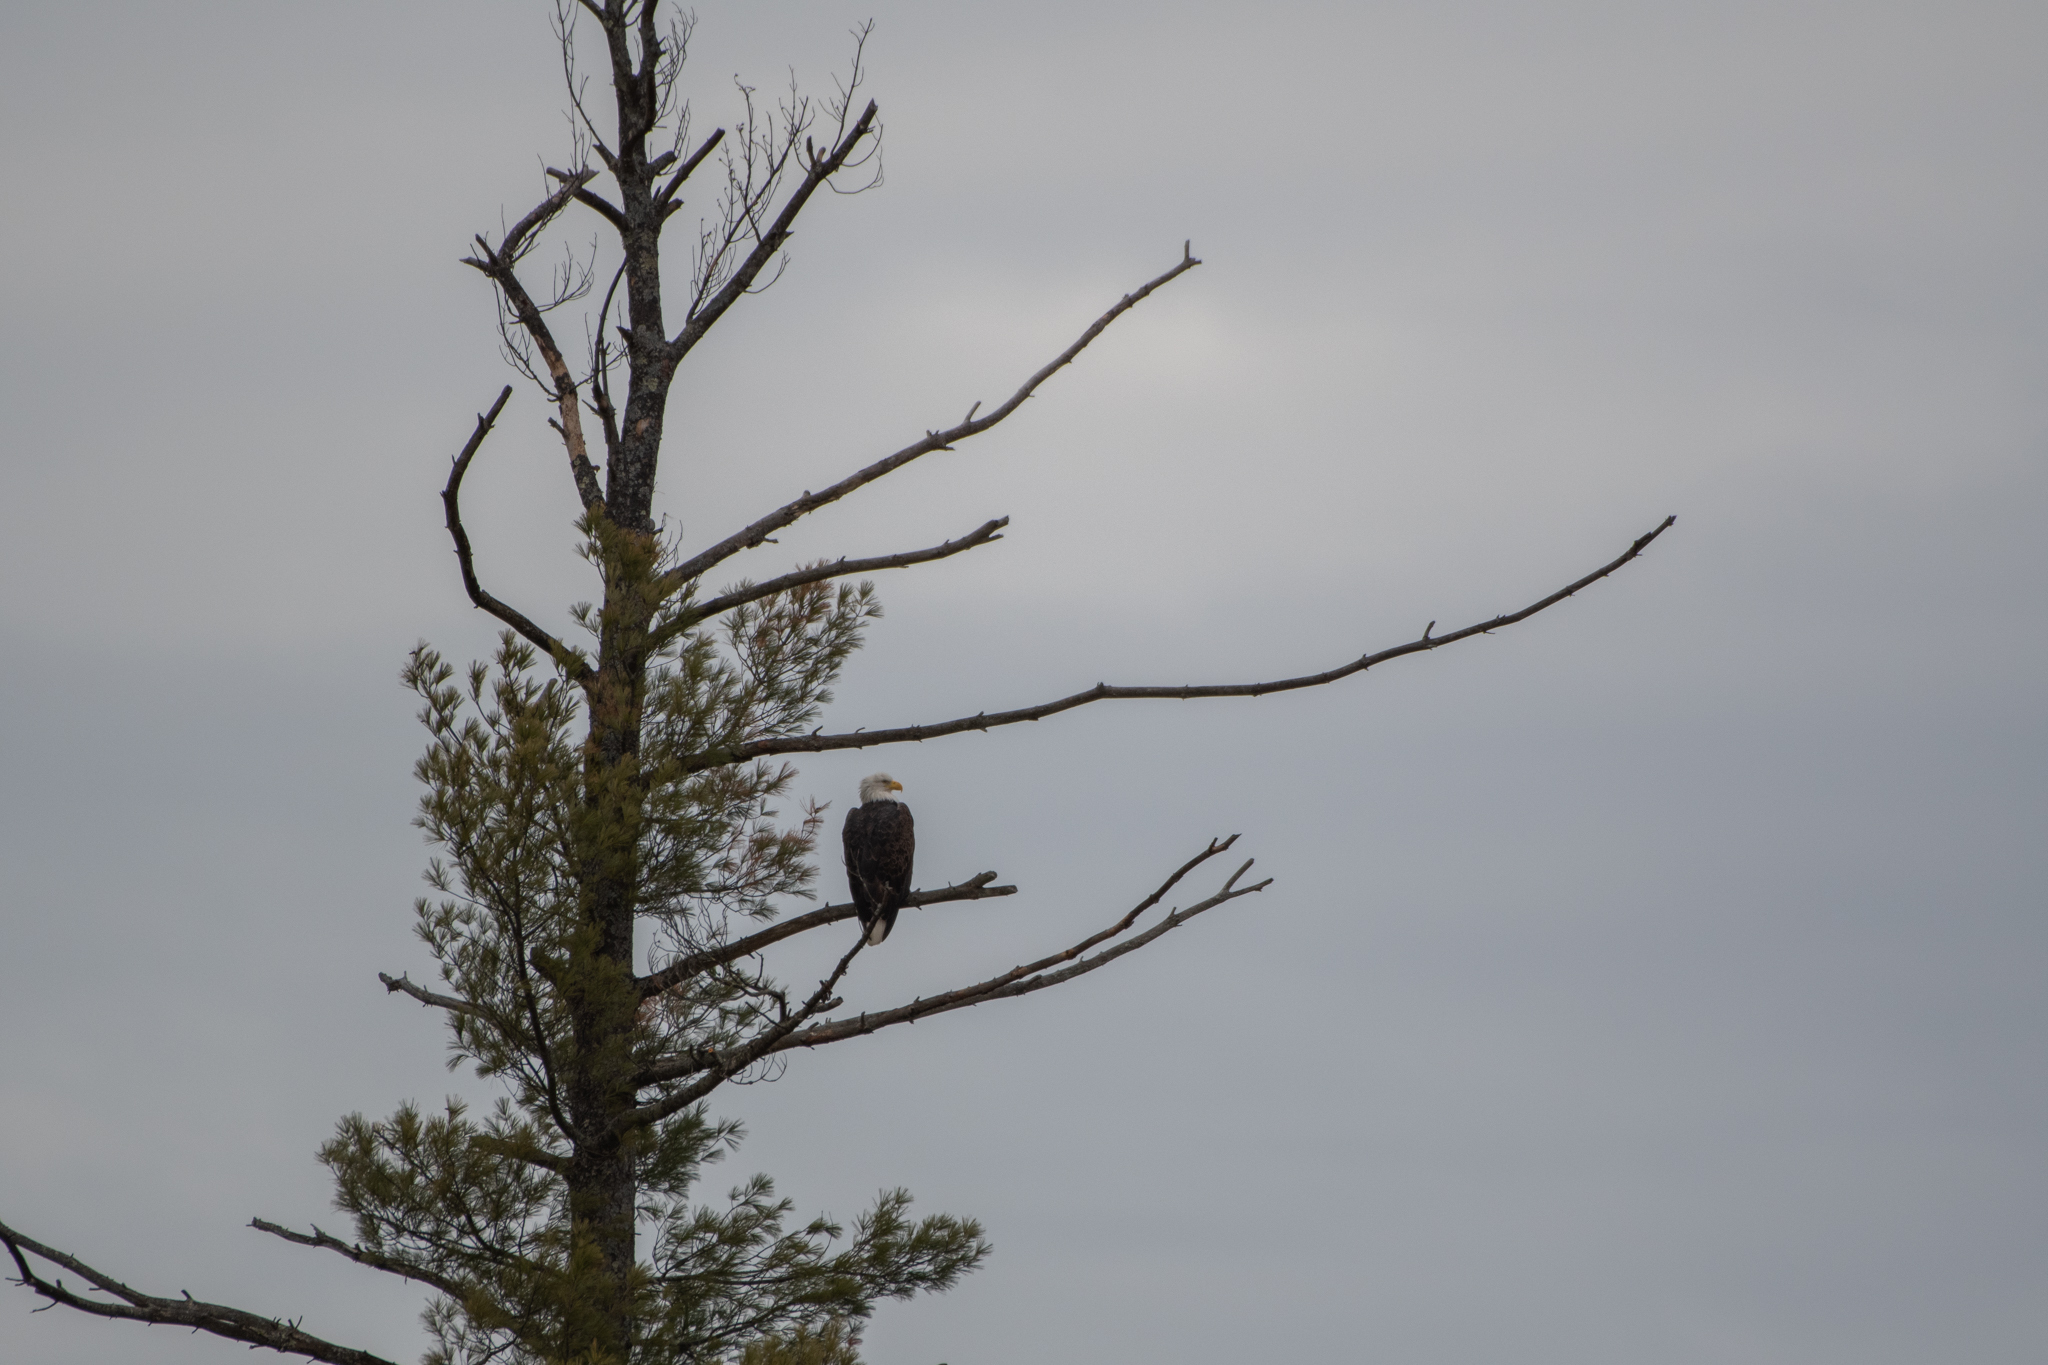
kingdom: Animalia
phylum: Chordata
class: Aves
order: Accipitriformes
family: Accipitridae
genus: Haliaeetus
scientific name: Haliaeetus leucocephalus
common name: Bald eagle
